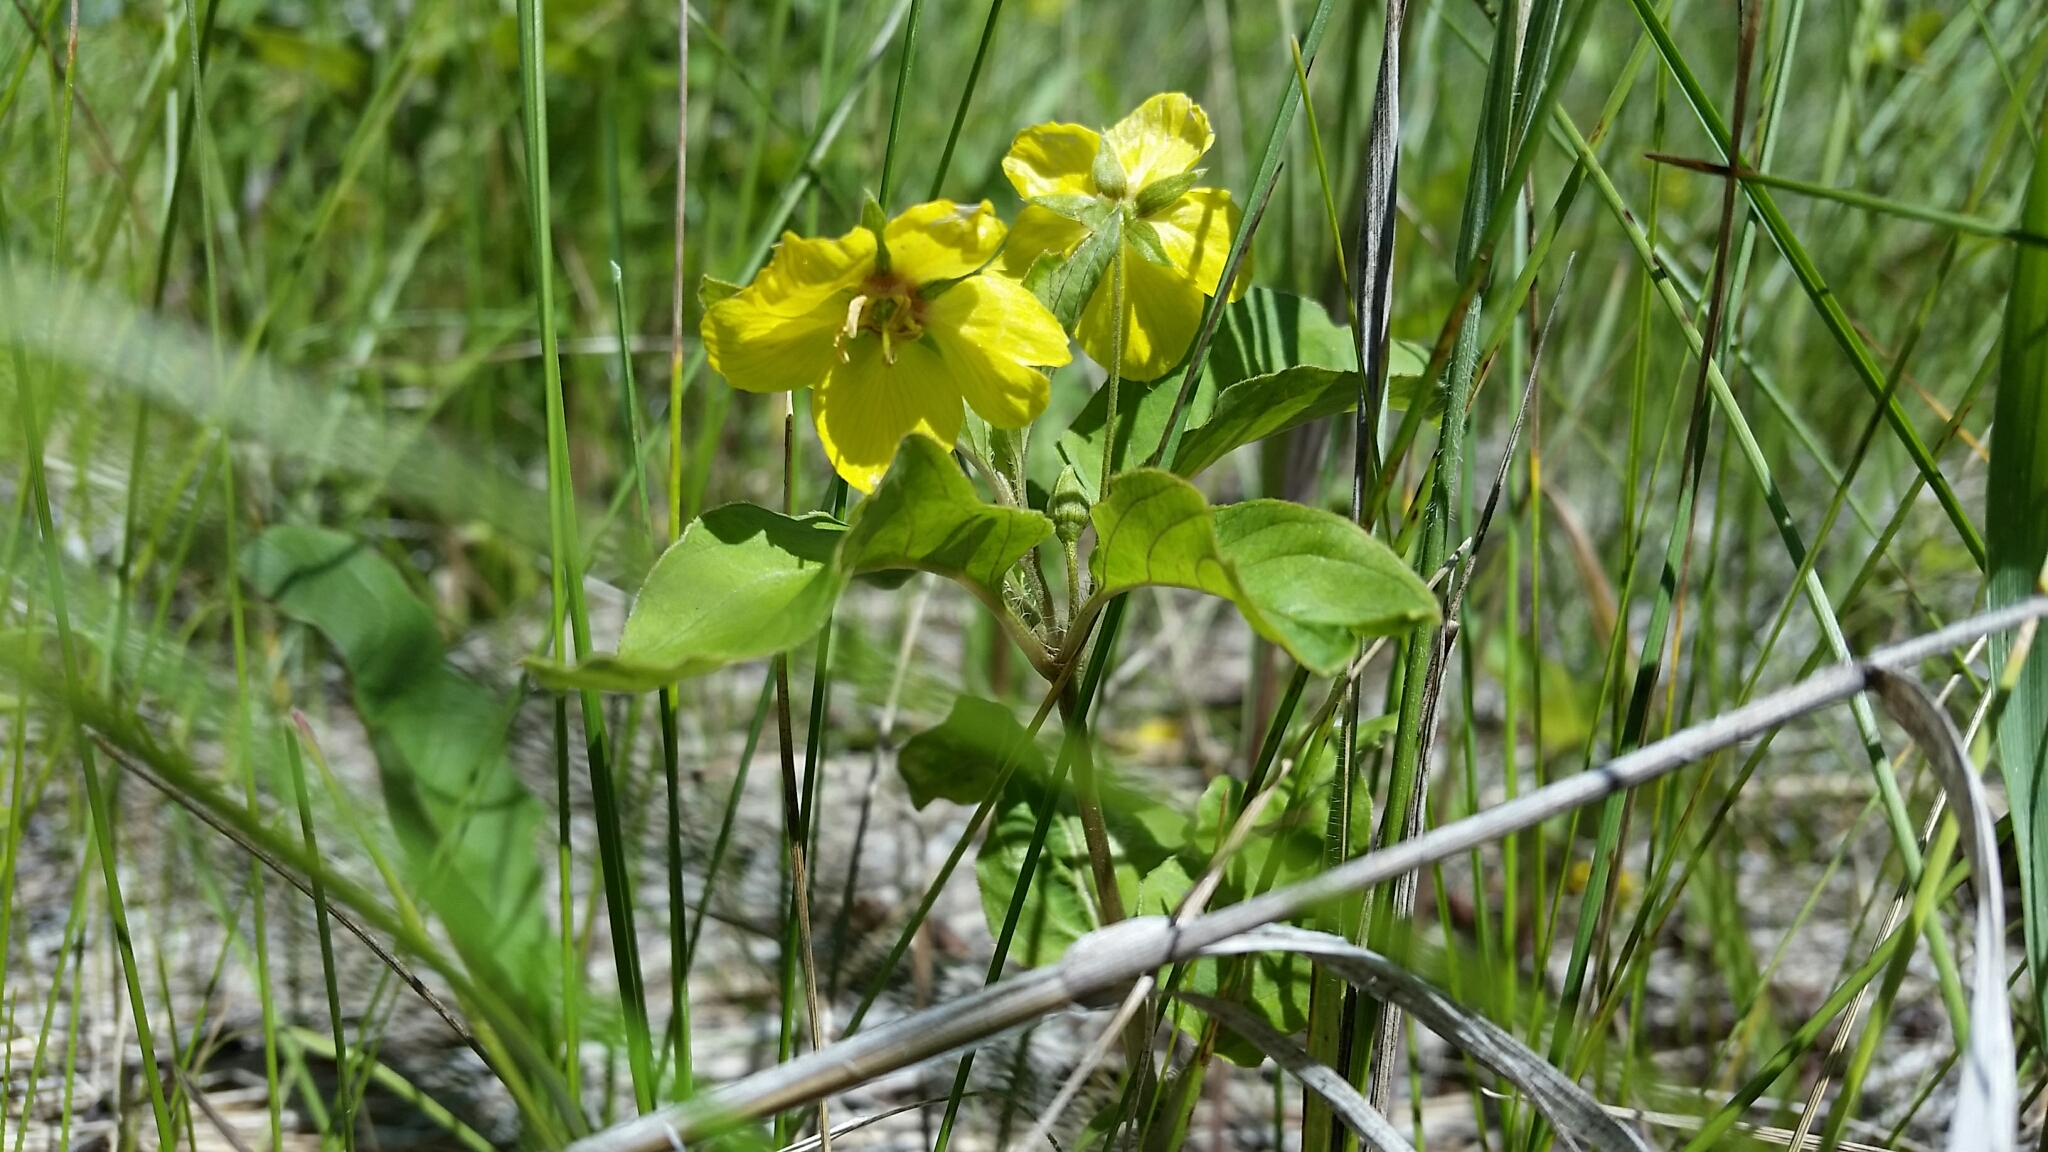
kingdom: Plantae
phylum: Tracheophyta
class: Magnoliopsida
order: Ericales
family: Primulaceae
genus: Lysimachia
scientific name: Lysimachia ciliata
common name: Fringed loosestrife
